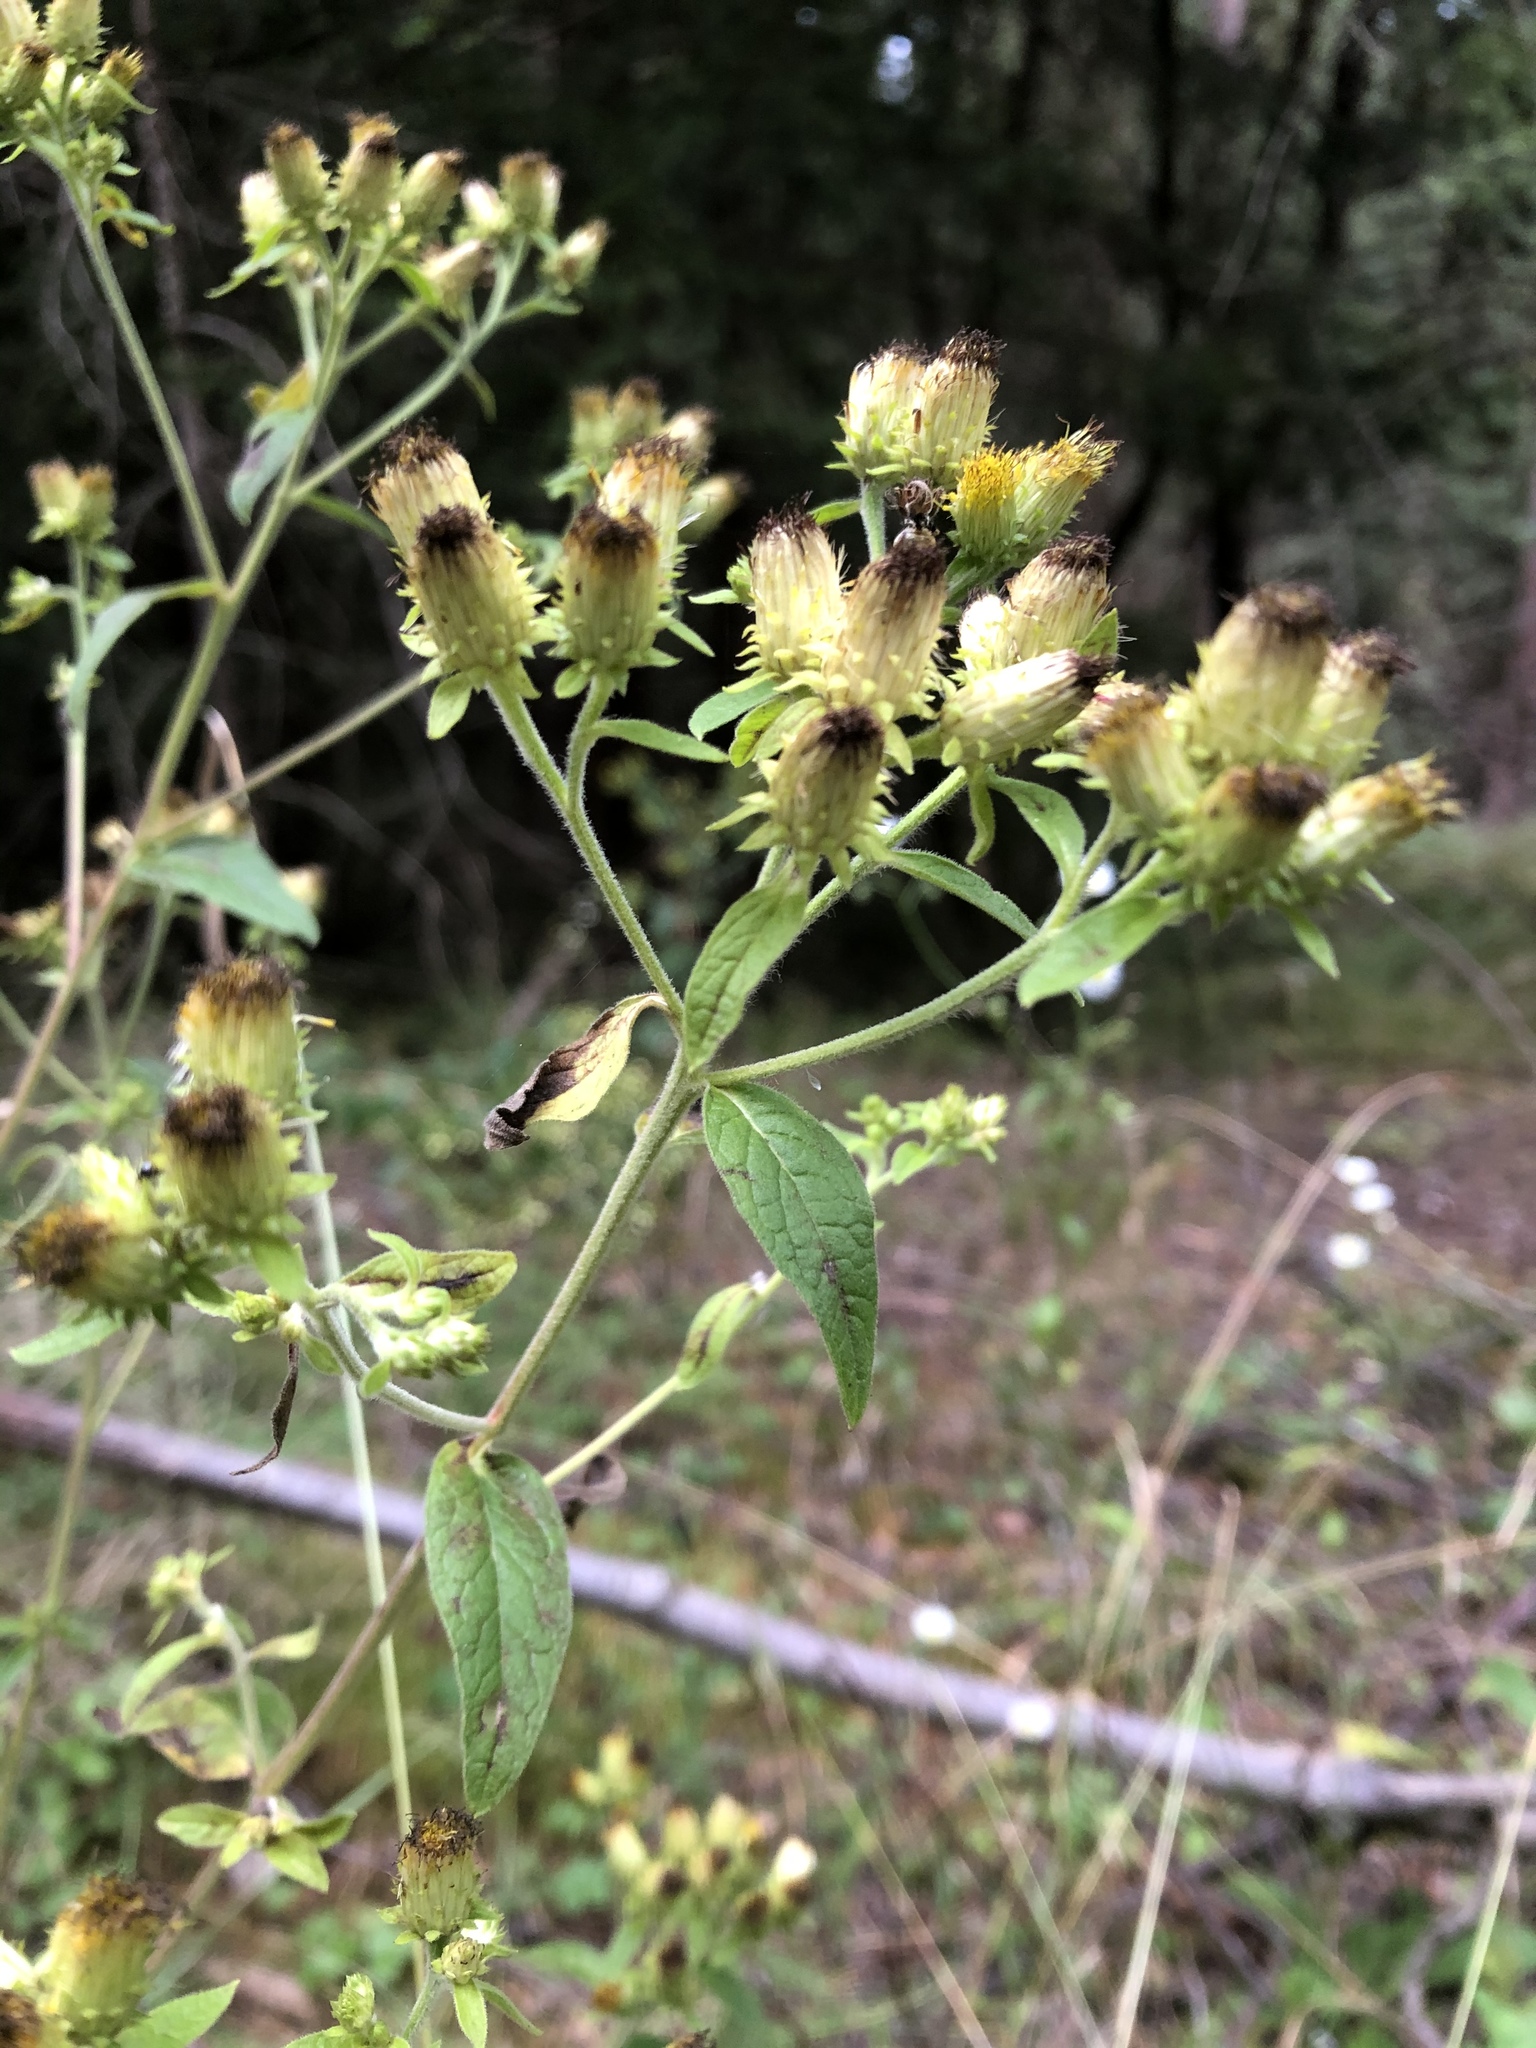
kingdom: Plantae
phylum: Tracheophyta
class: Magnoliopsida
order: Asterales
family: Asteraceae
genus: Pentanema
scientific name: Pentanema squarrosum
